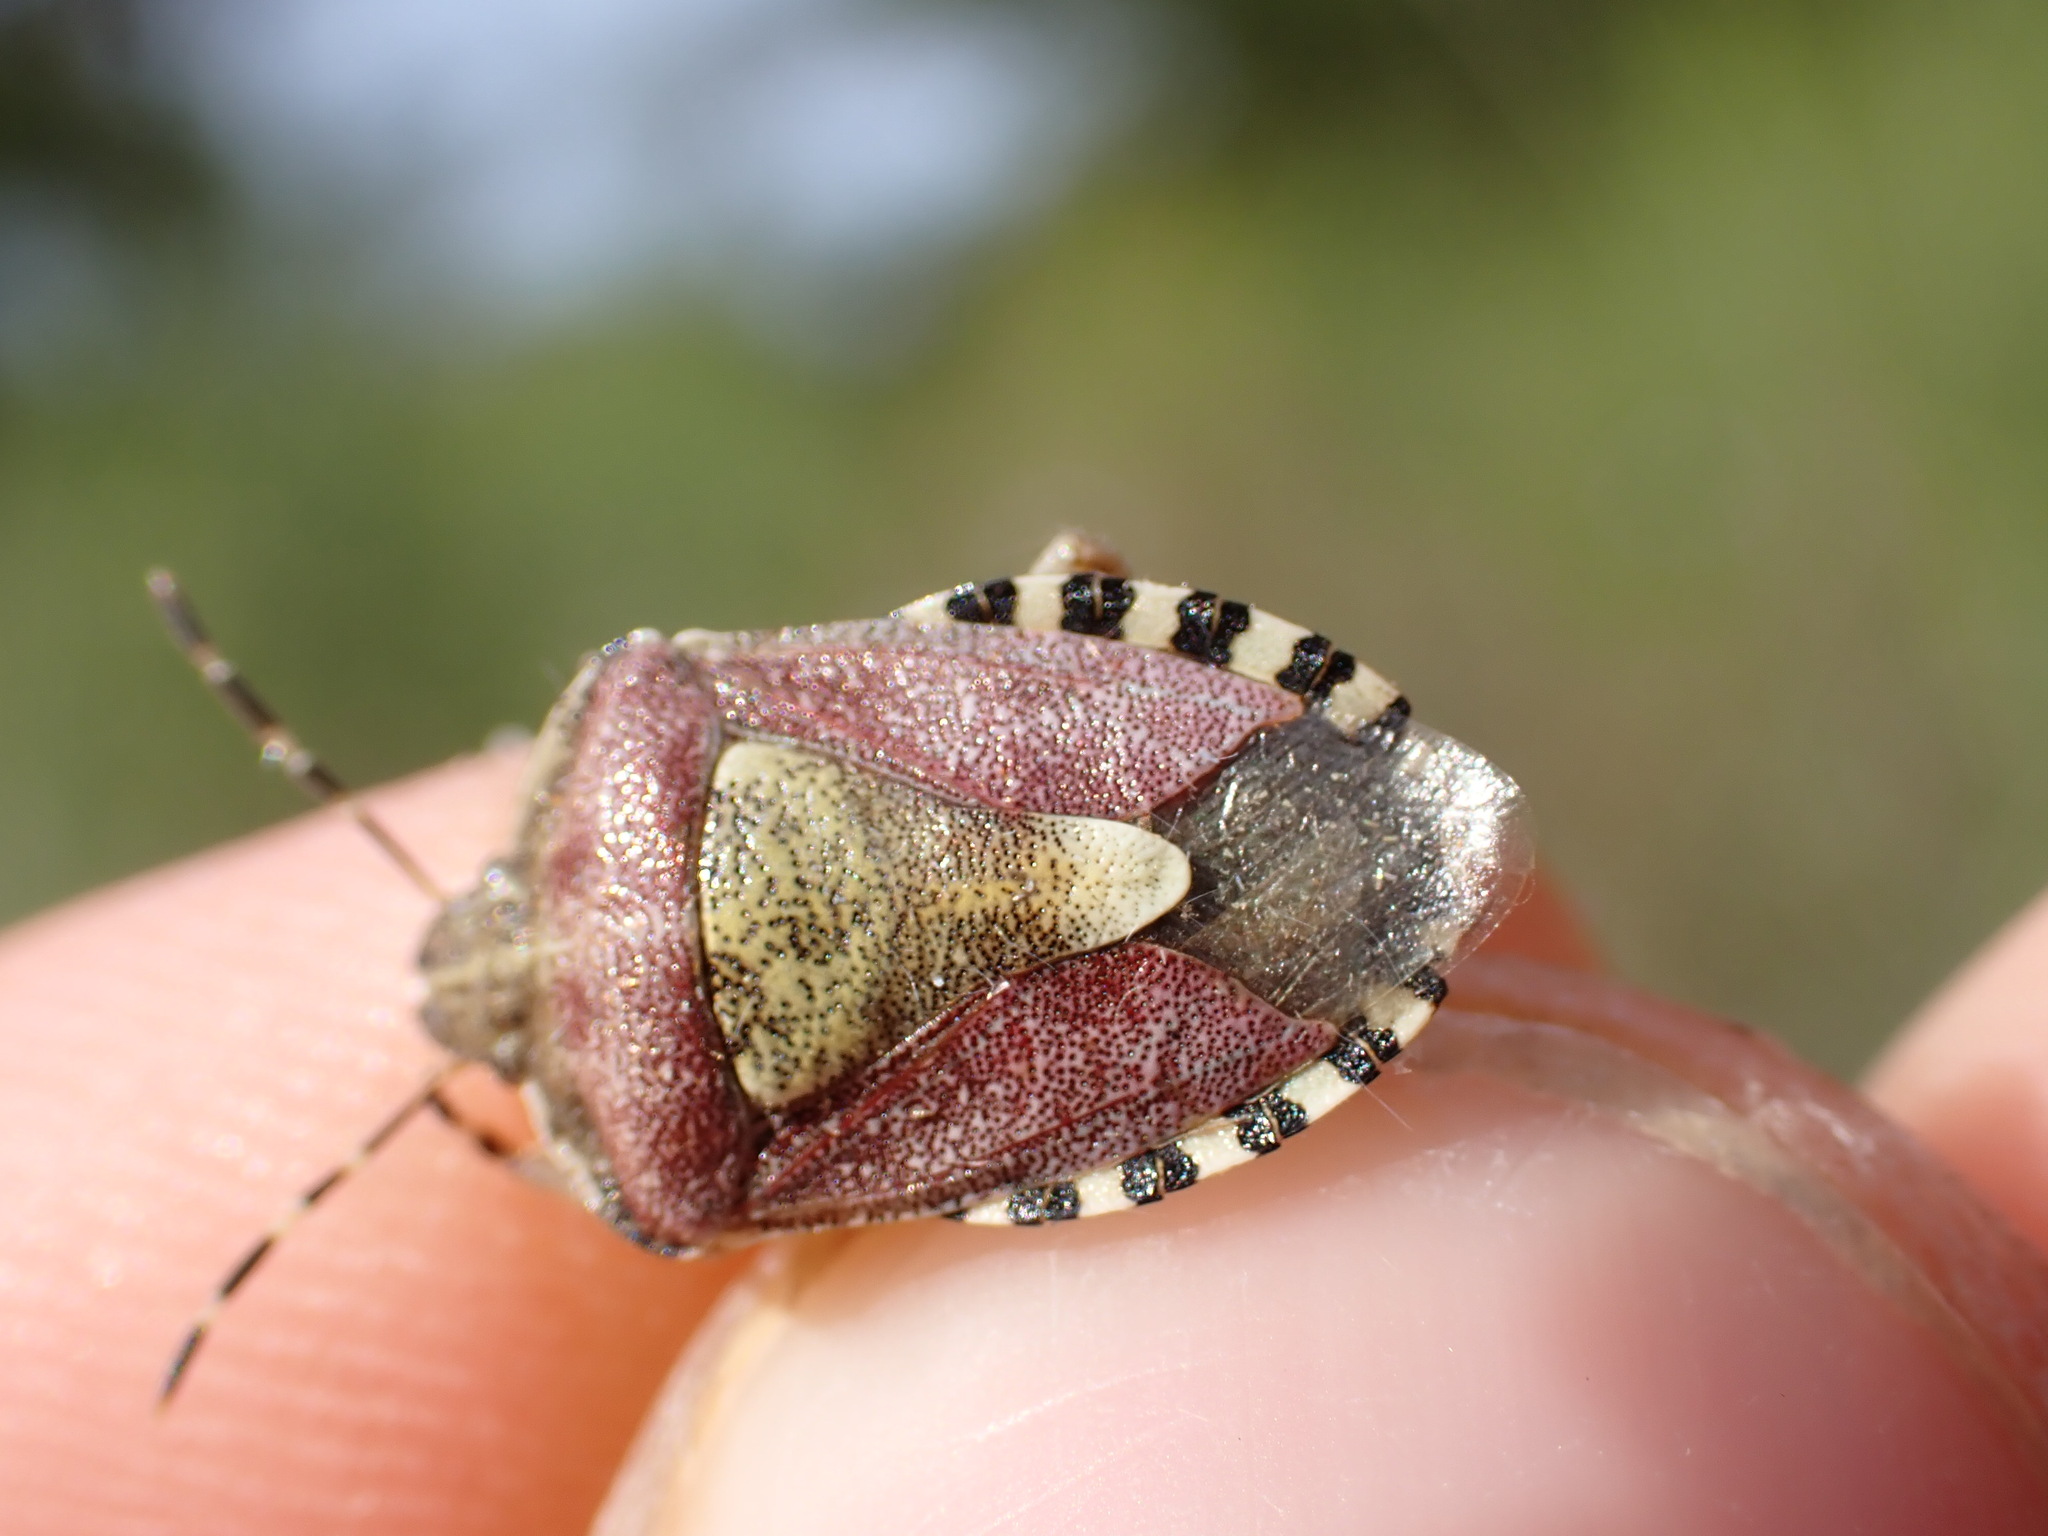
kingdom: Animalia
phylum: Arthropoda
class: Insecta
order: Hemiptera
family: Pentatomidae
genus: Dolycoris
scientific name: Dolycoris baccarum
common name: Sloe bug
